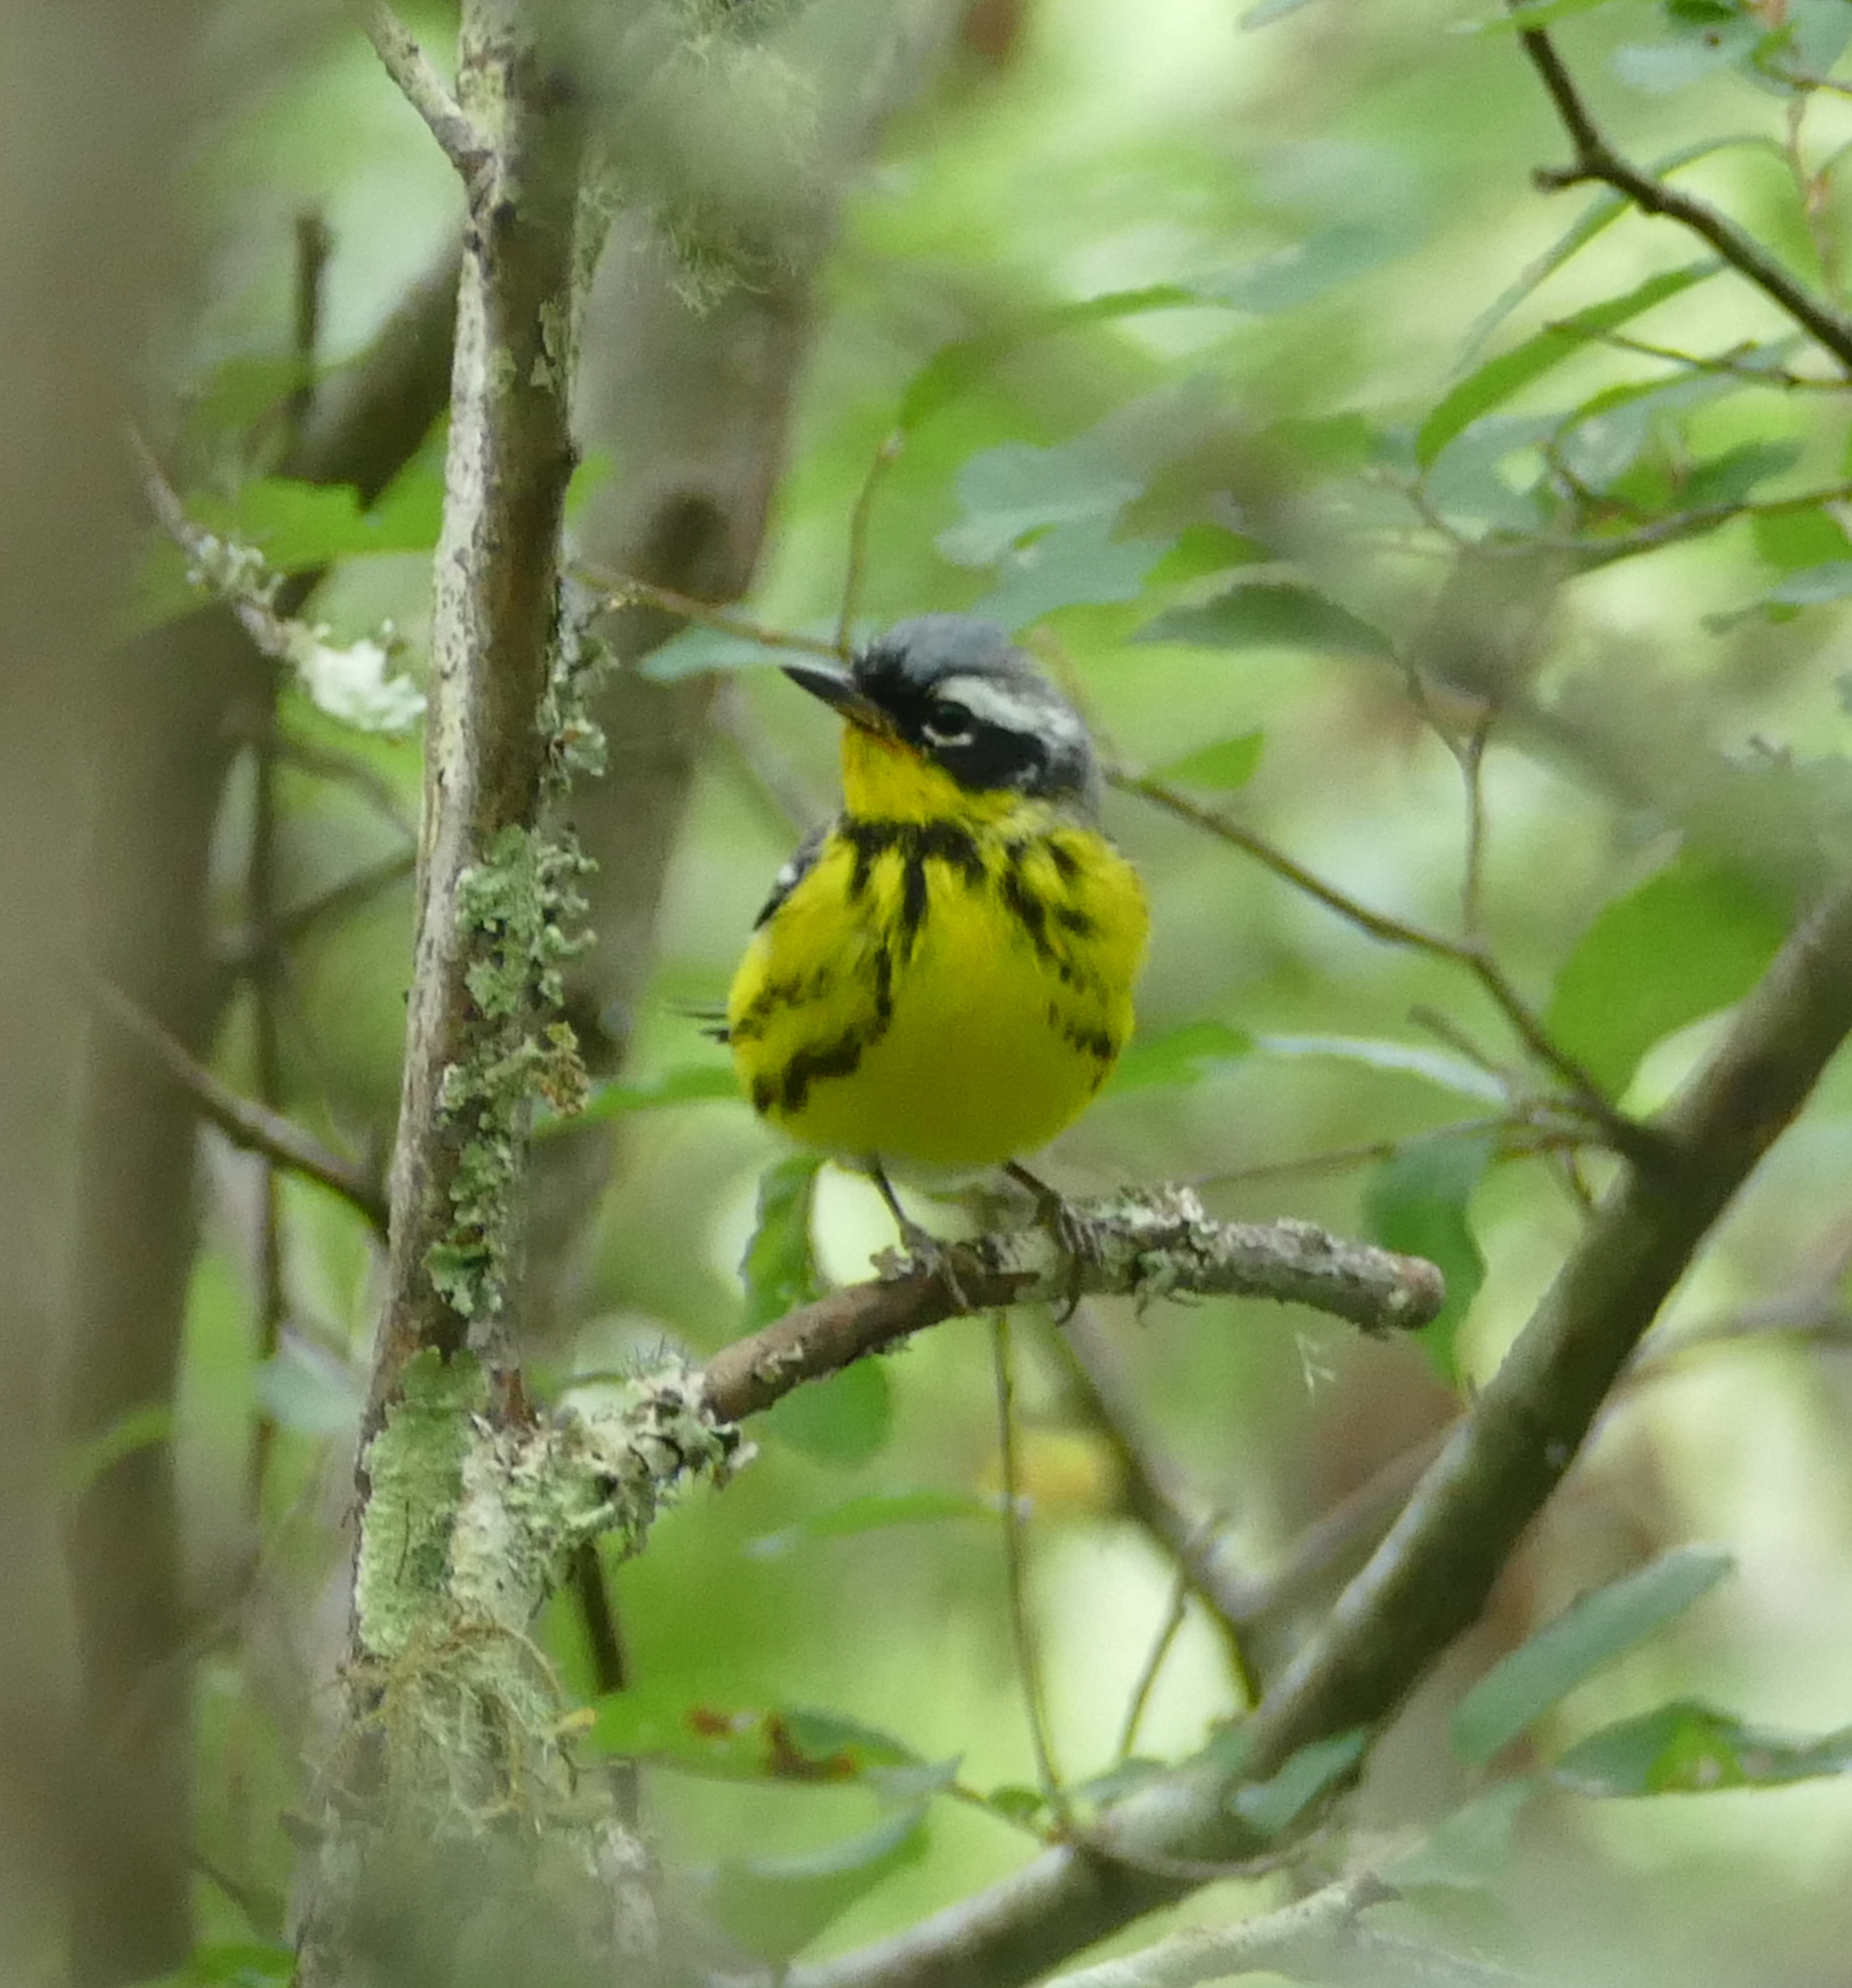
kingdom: Animalia
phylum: Chordata
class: Aves
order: Passeriformes
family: Parulidae
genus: Setophaga
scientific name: Setophaga magnolia
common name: Magnolia warbler
